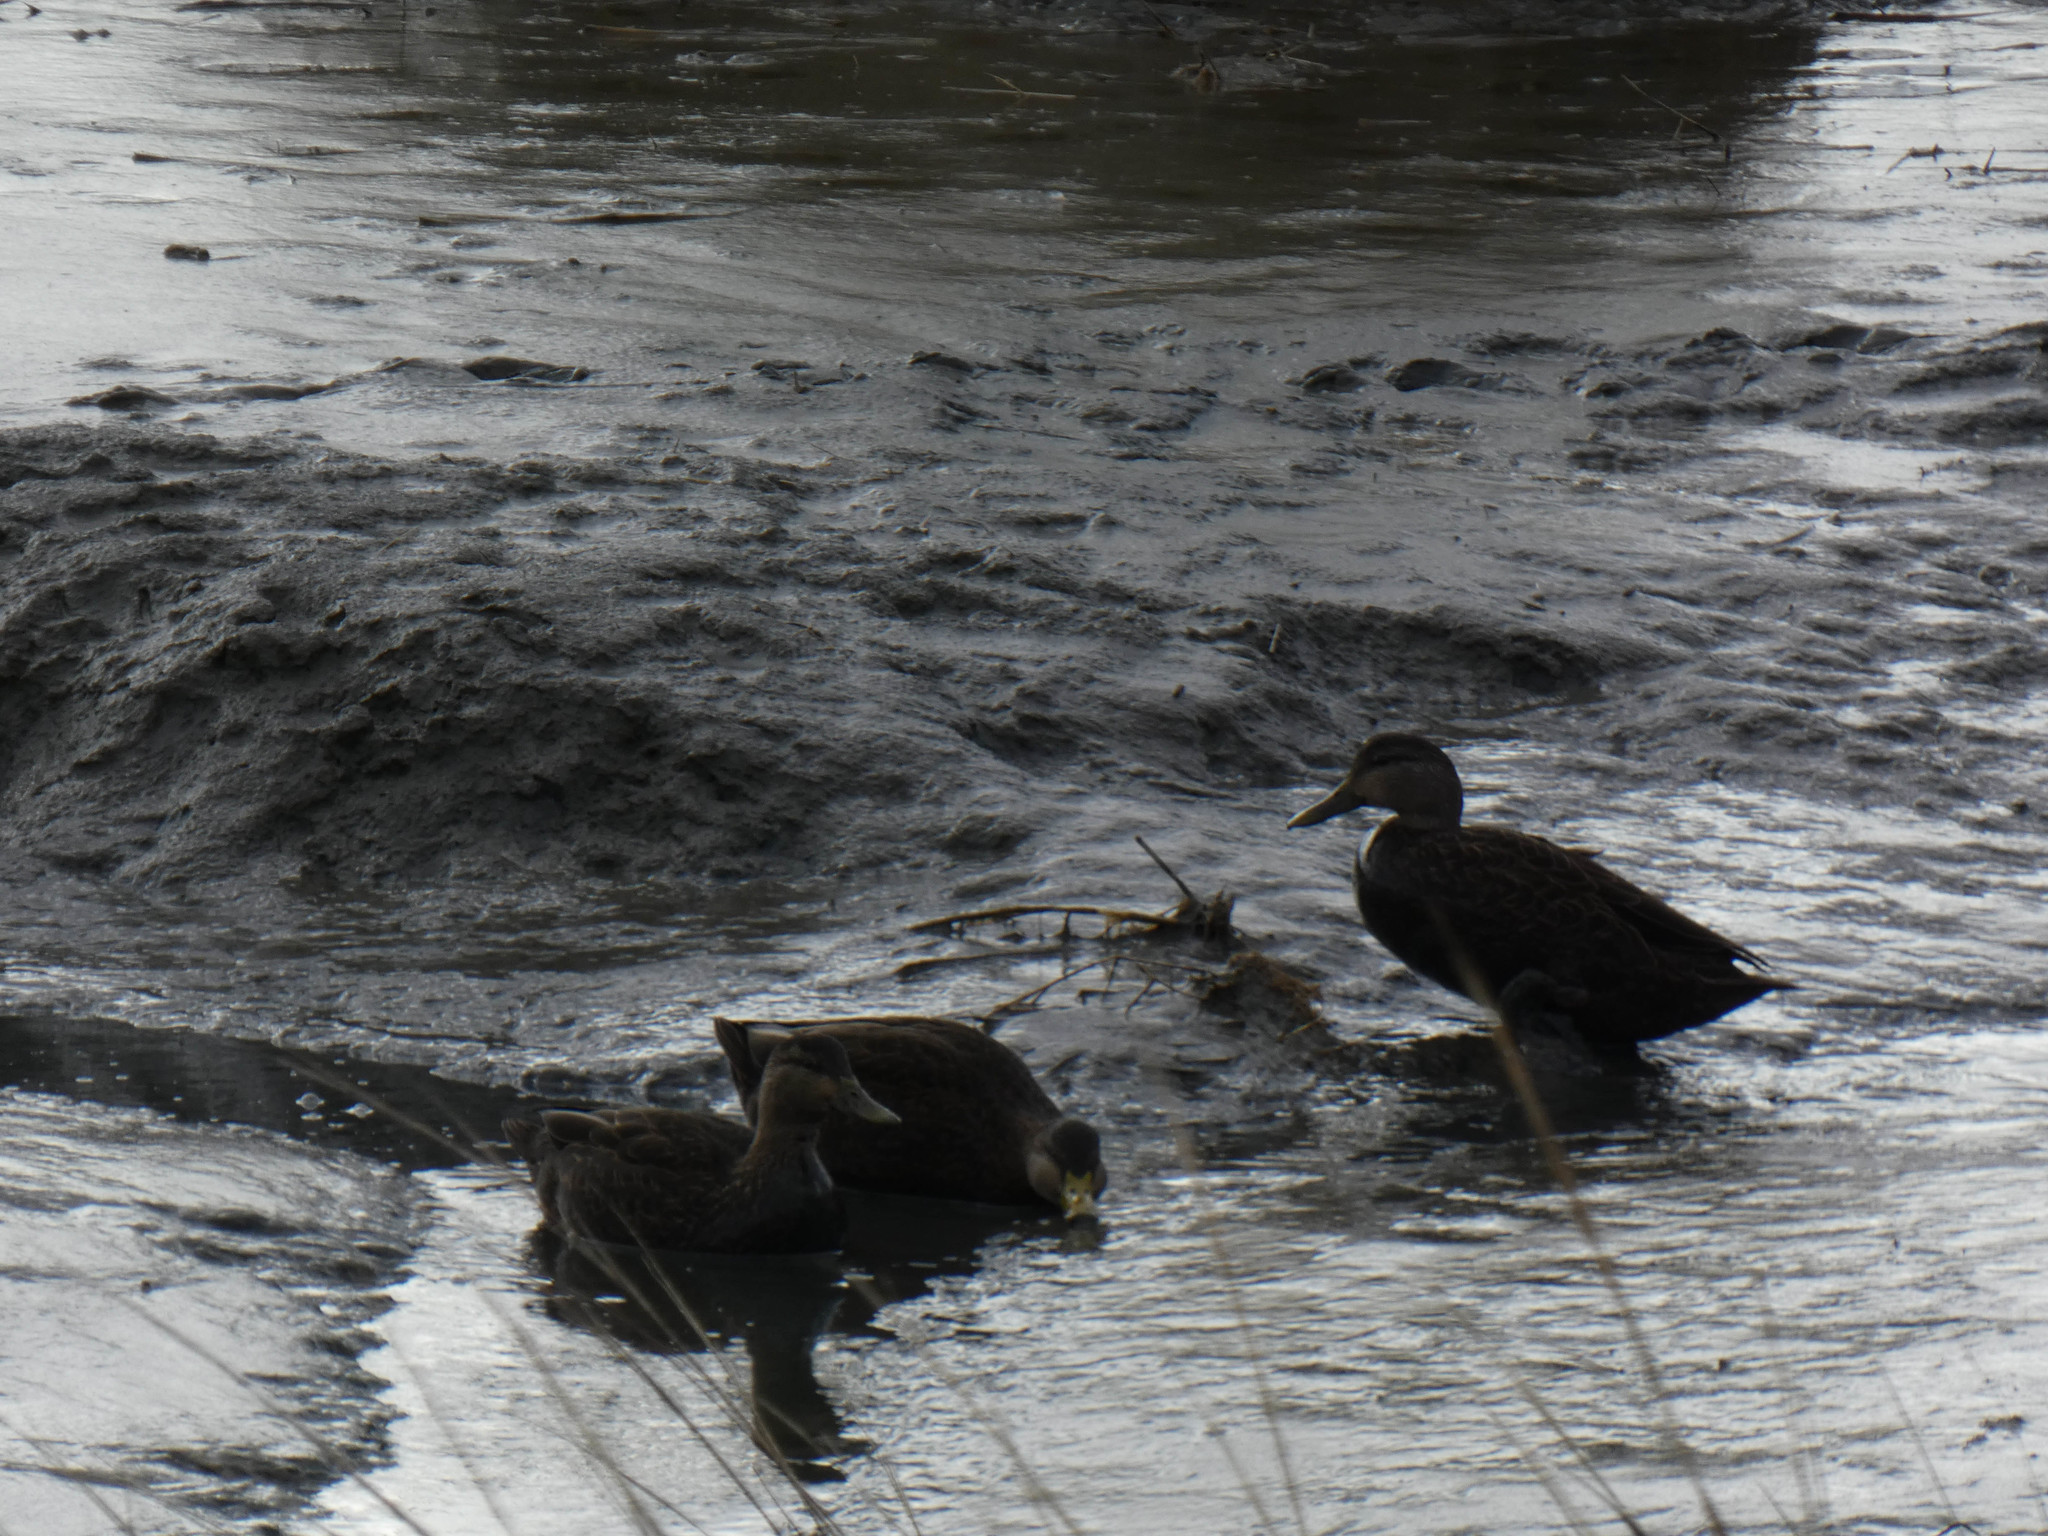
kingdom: Animalia
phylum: Chordata
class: Aves
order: Anseriformes
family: Anatidae
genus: Anas
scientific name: Anas rubripes
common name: American black duck
